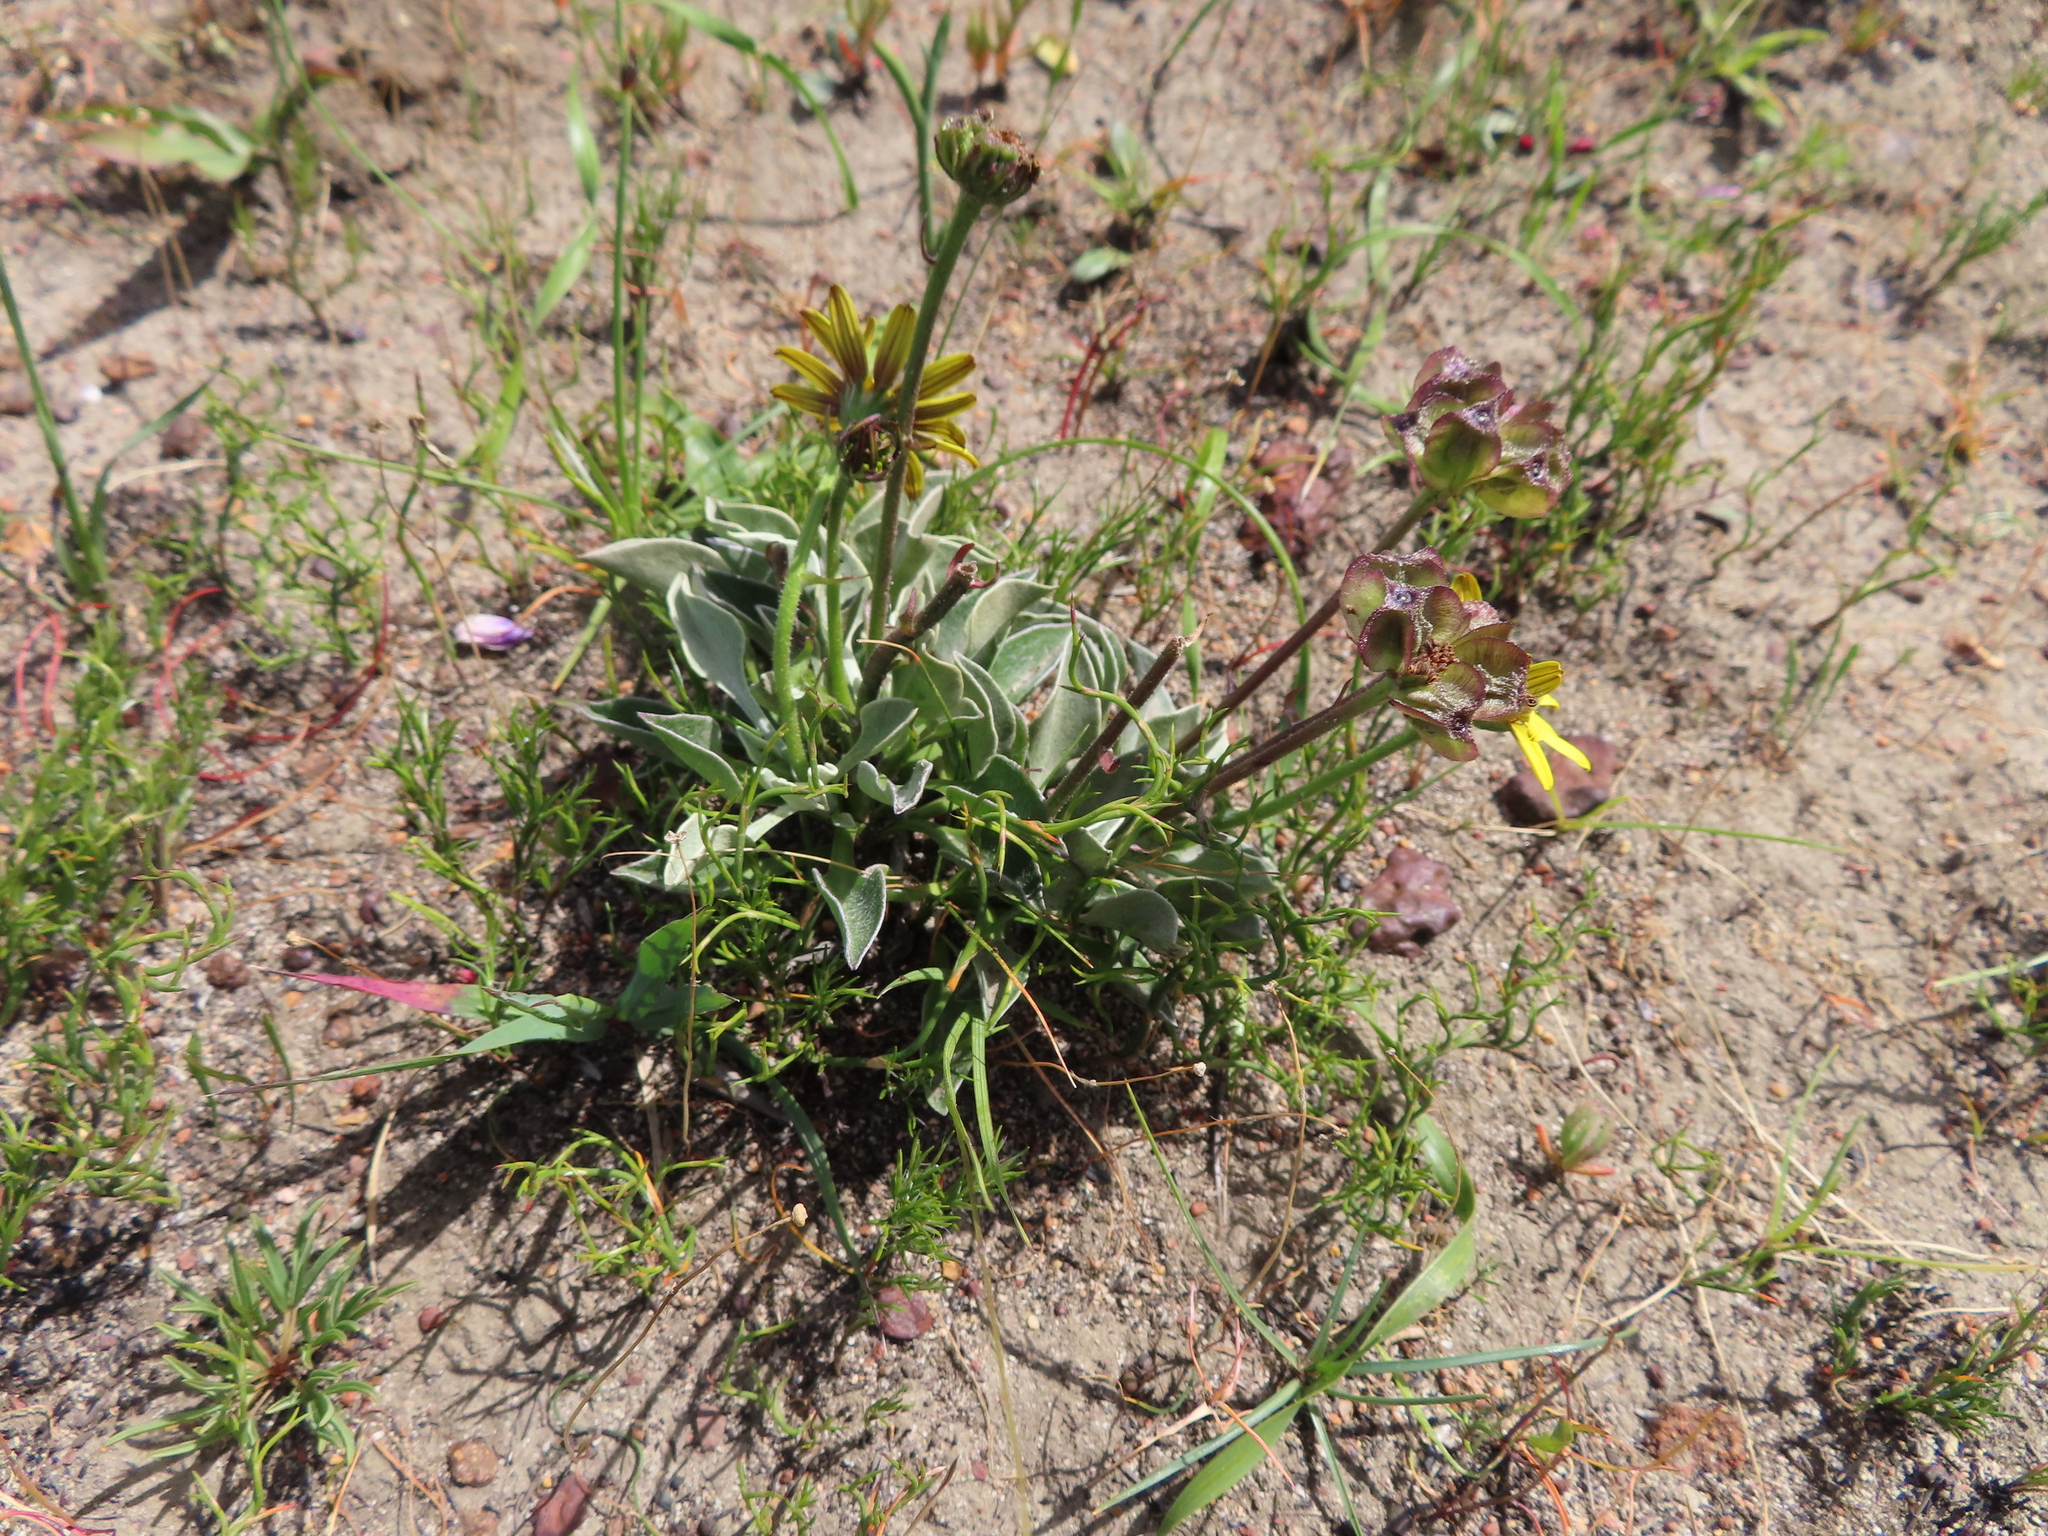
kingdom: Plantae
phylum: Tracheophyta
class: Magnoliopsida
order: Asterales
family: Asteraceae
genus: Osteospermum
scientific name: Osteospermum tomentosum
